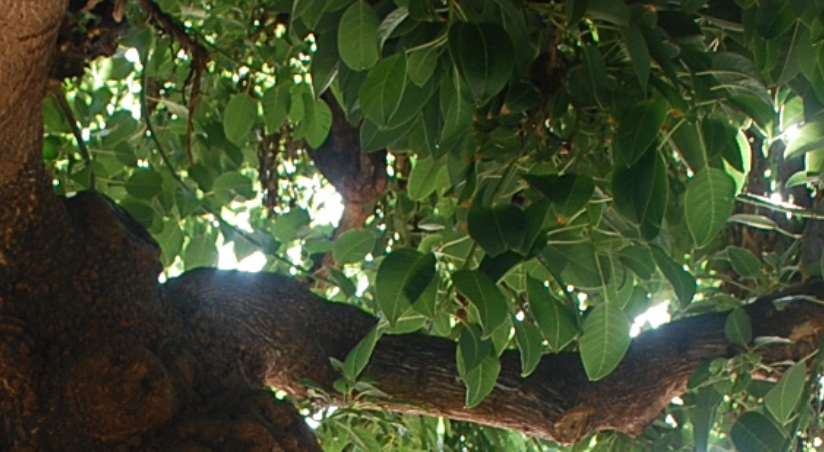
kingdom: Plantae
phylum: Tracheophyta
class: Magnoliopsida
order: Caryophyllales
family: Phytolaccaceae
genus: Phytolacca
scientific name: Phytolacca dioica
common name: Pokeweed
